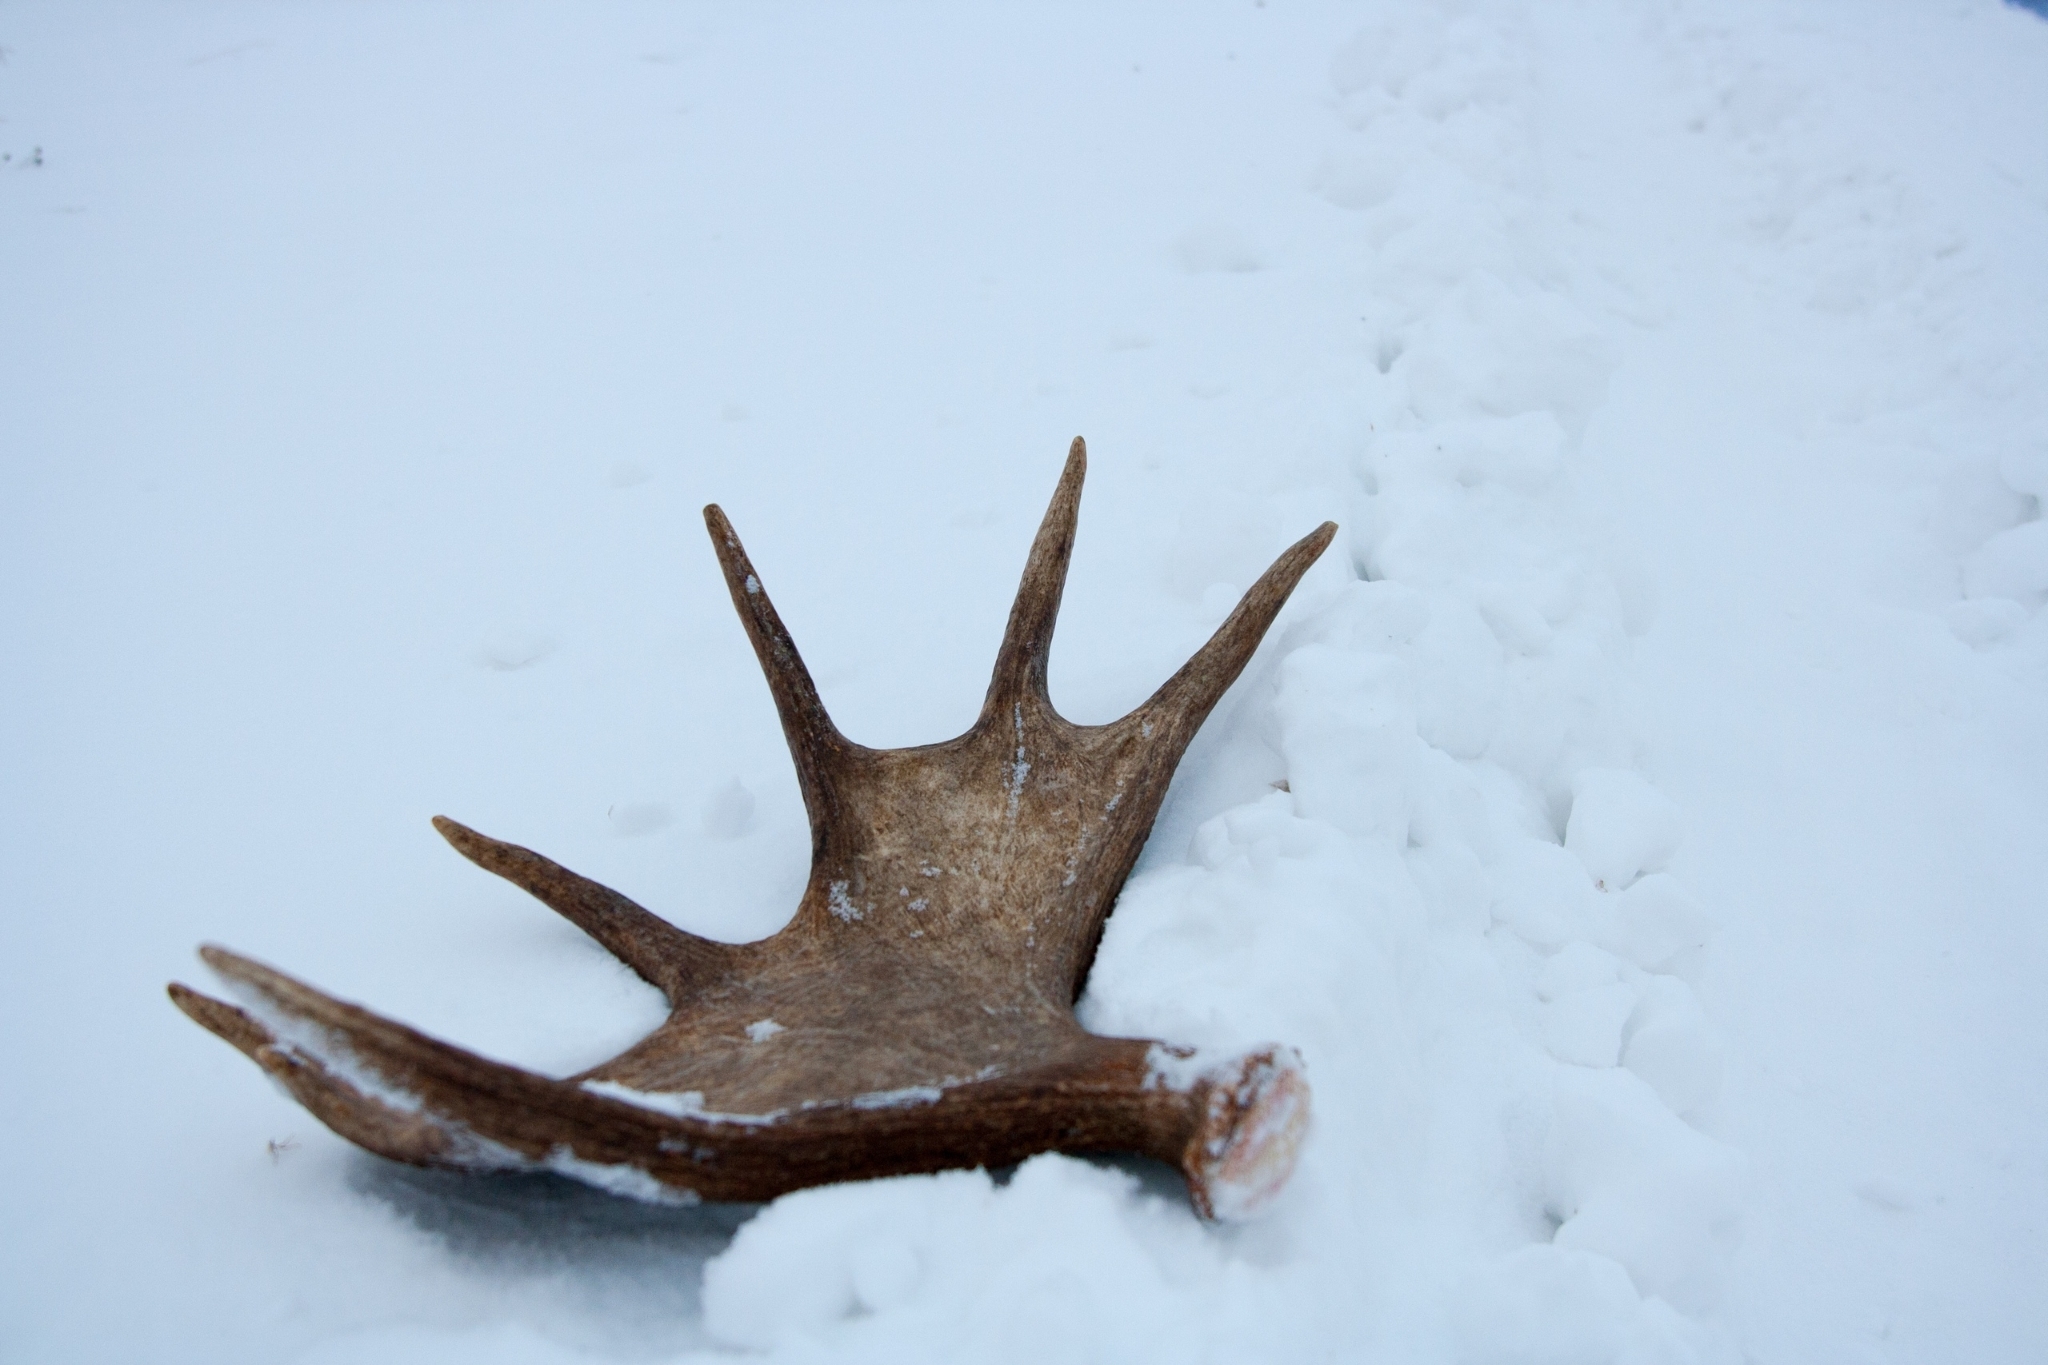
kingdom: Animalia
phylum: Chordata
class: Mammalia
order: Artiodactyla
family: Cervidae
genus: Alces
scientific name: Alces alces
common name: Moose
